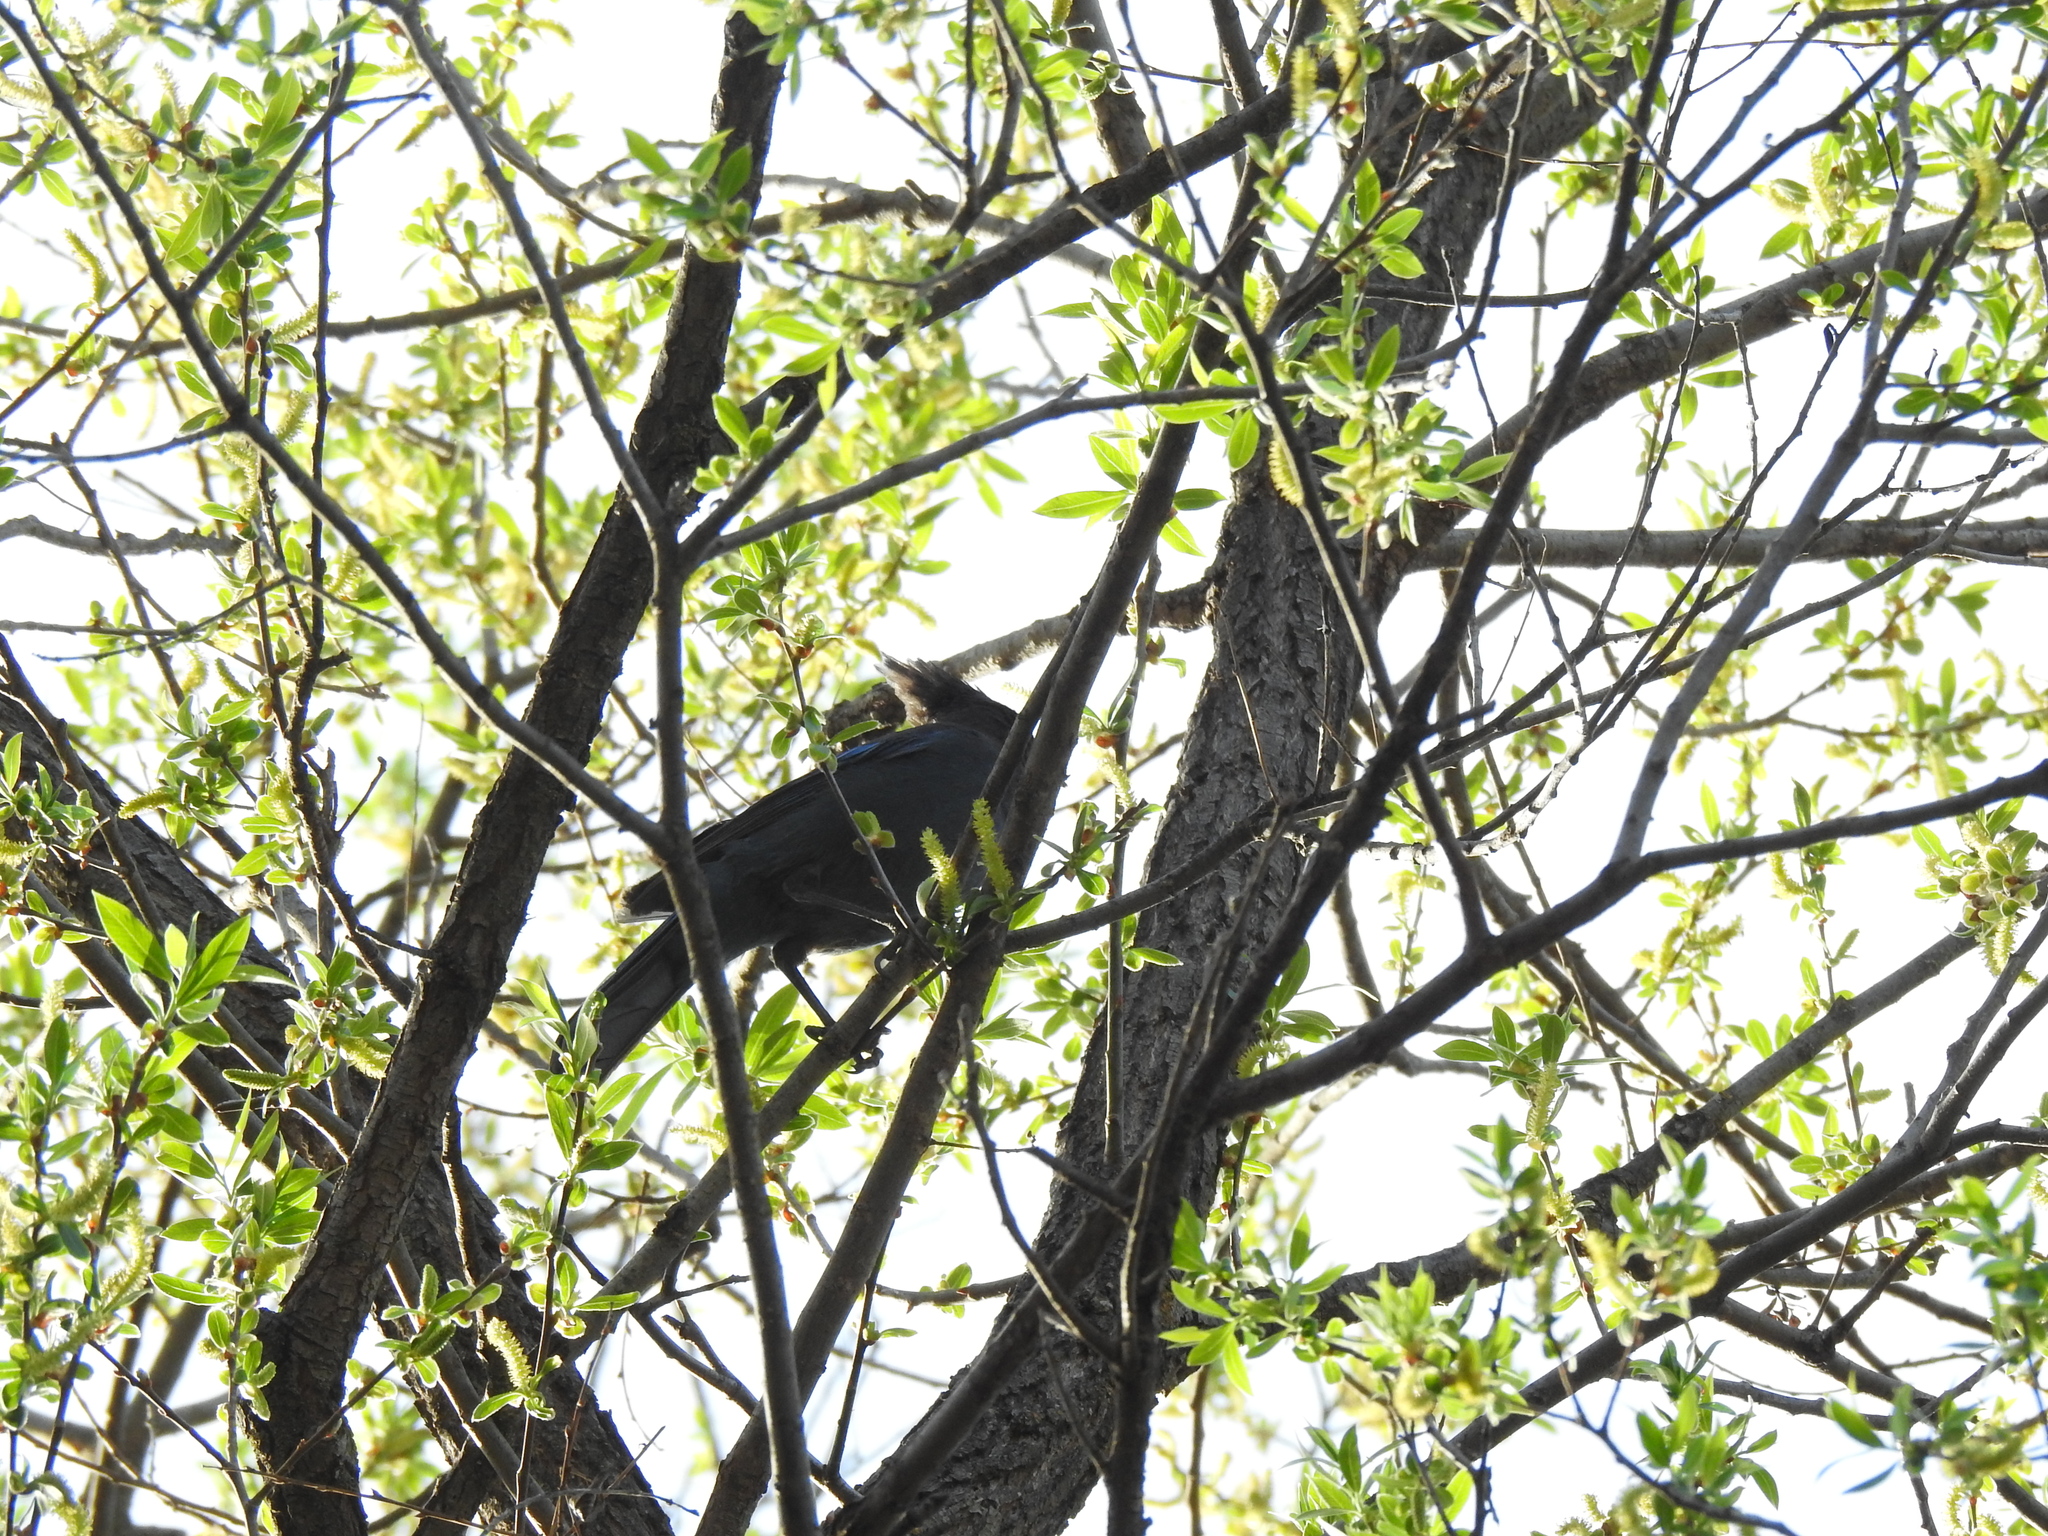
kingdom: Animalia
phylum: Chordata
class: Aves
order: Passeriformes
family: Corvidae
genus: Cyanocitta
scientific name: Cyanocitta stelleri
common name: Steller's jay
